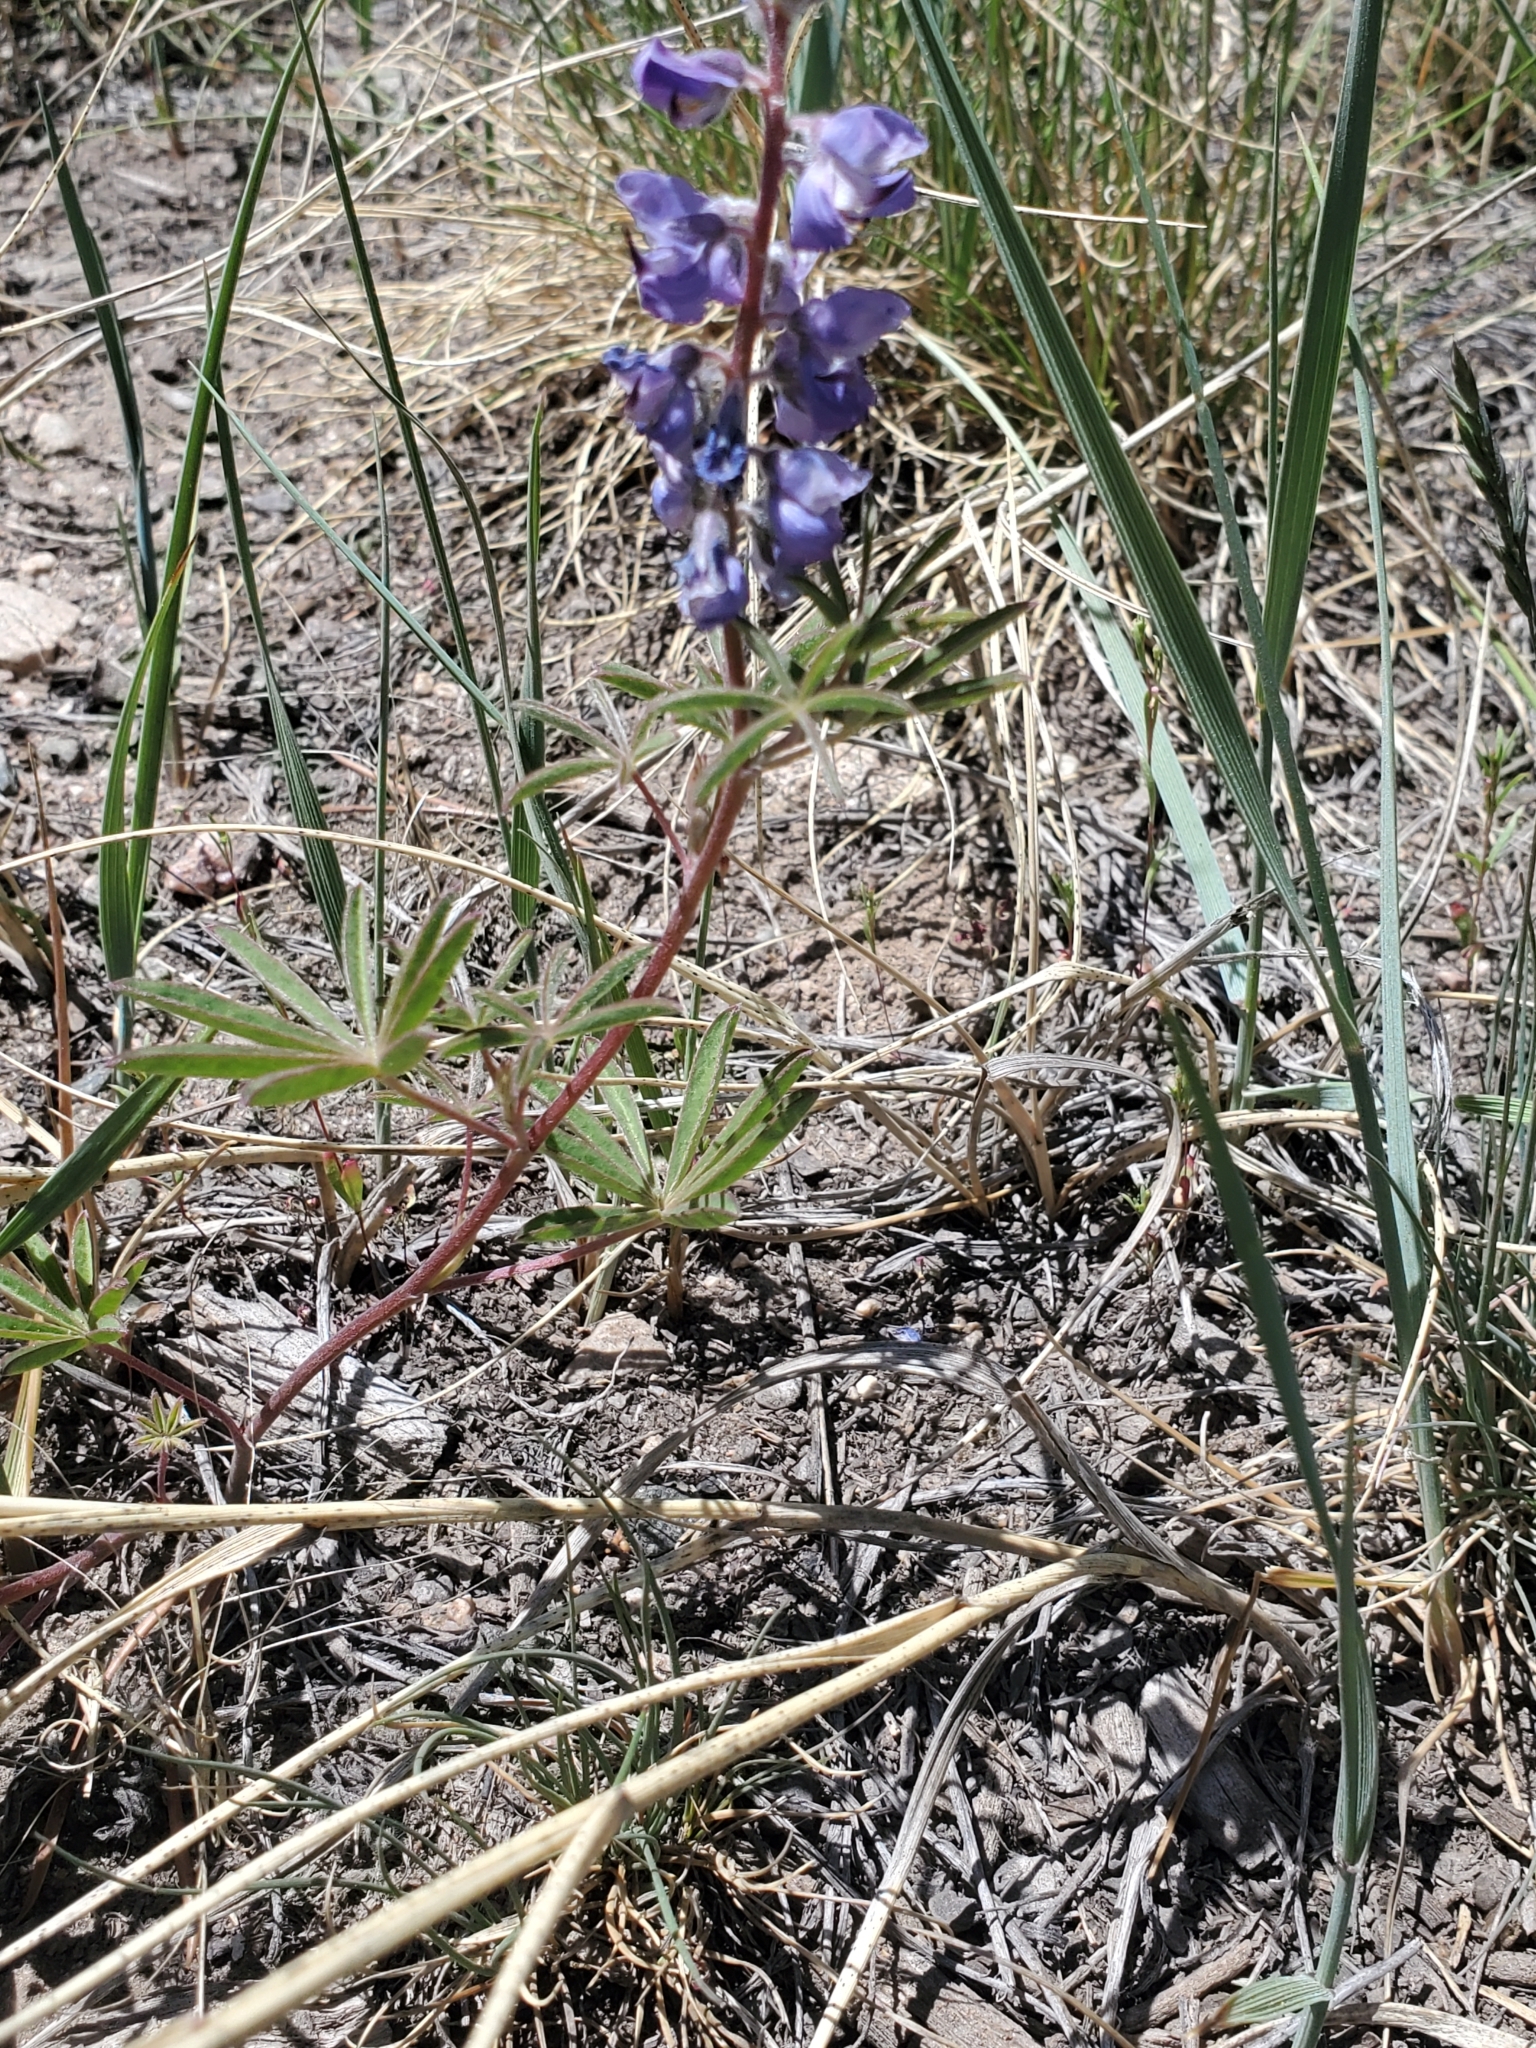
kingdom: Plantae
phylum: Tracheophyta
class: Magnoliopsida
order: Fabales
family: Fabaceae
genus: Lupinus
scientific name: Lupinus argenteus
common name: Silvery lupine
